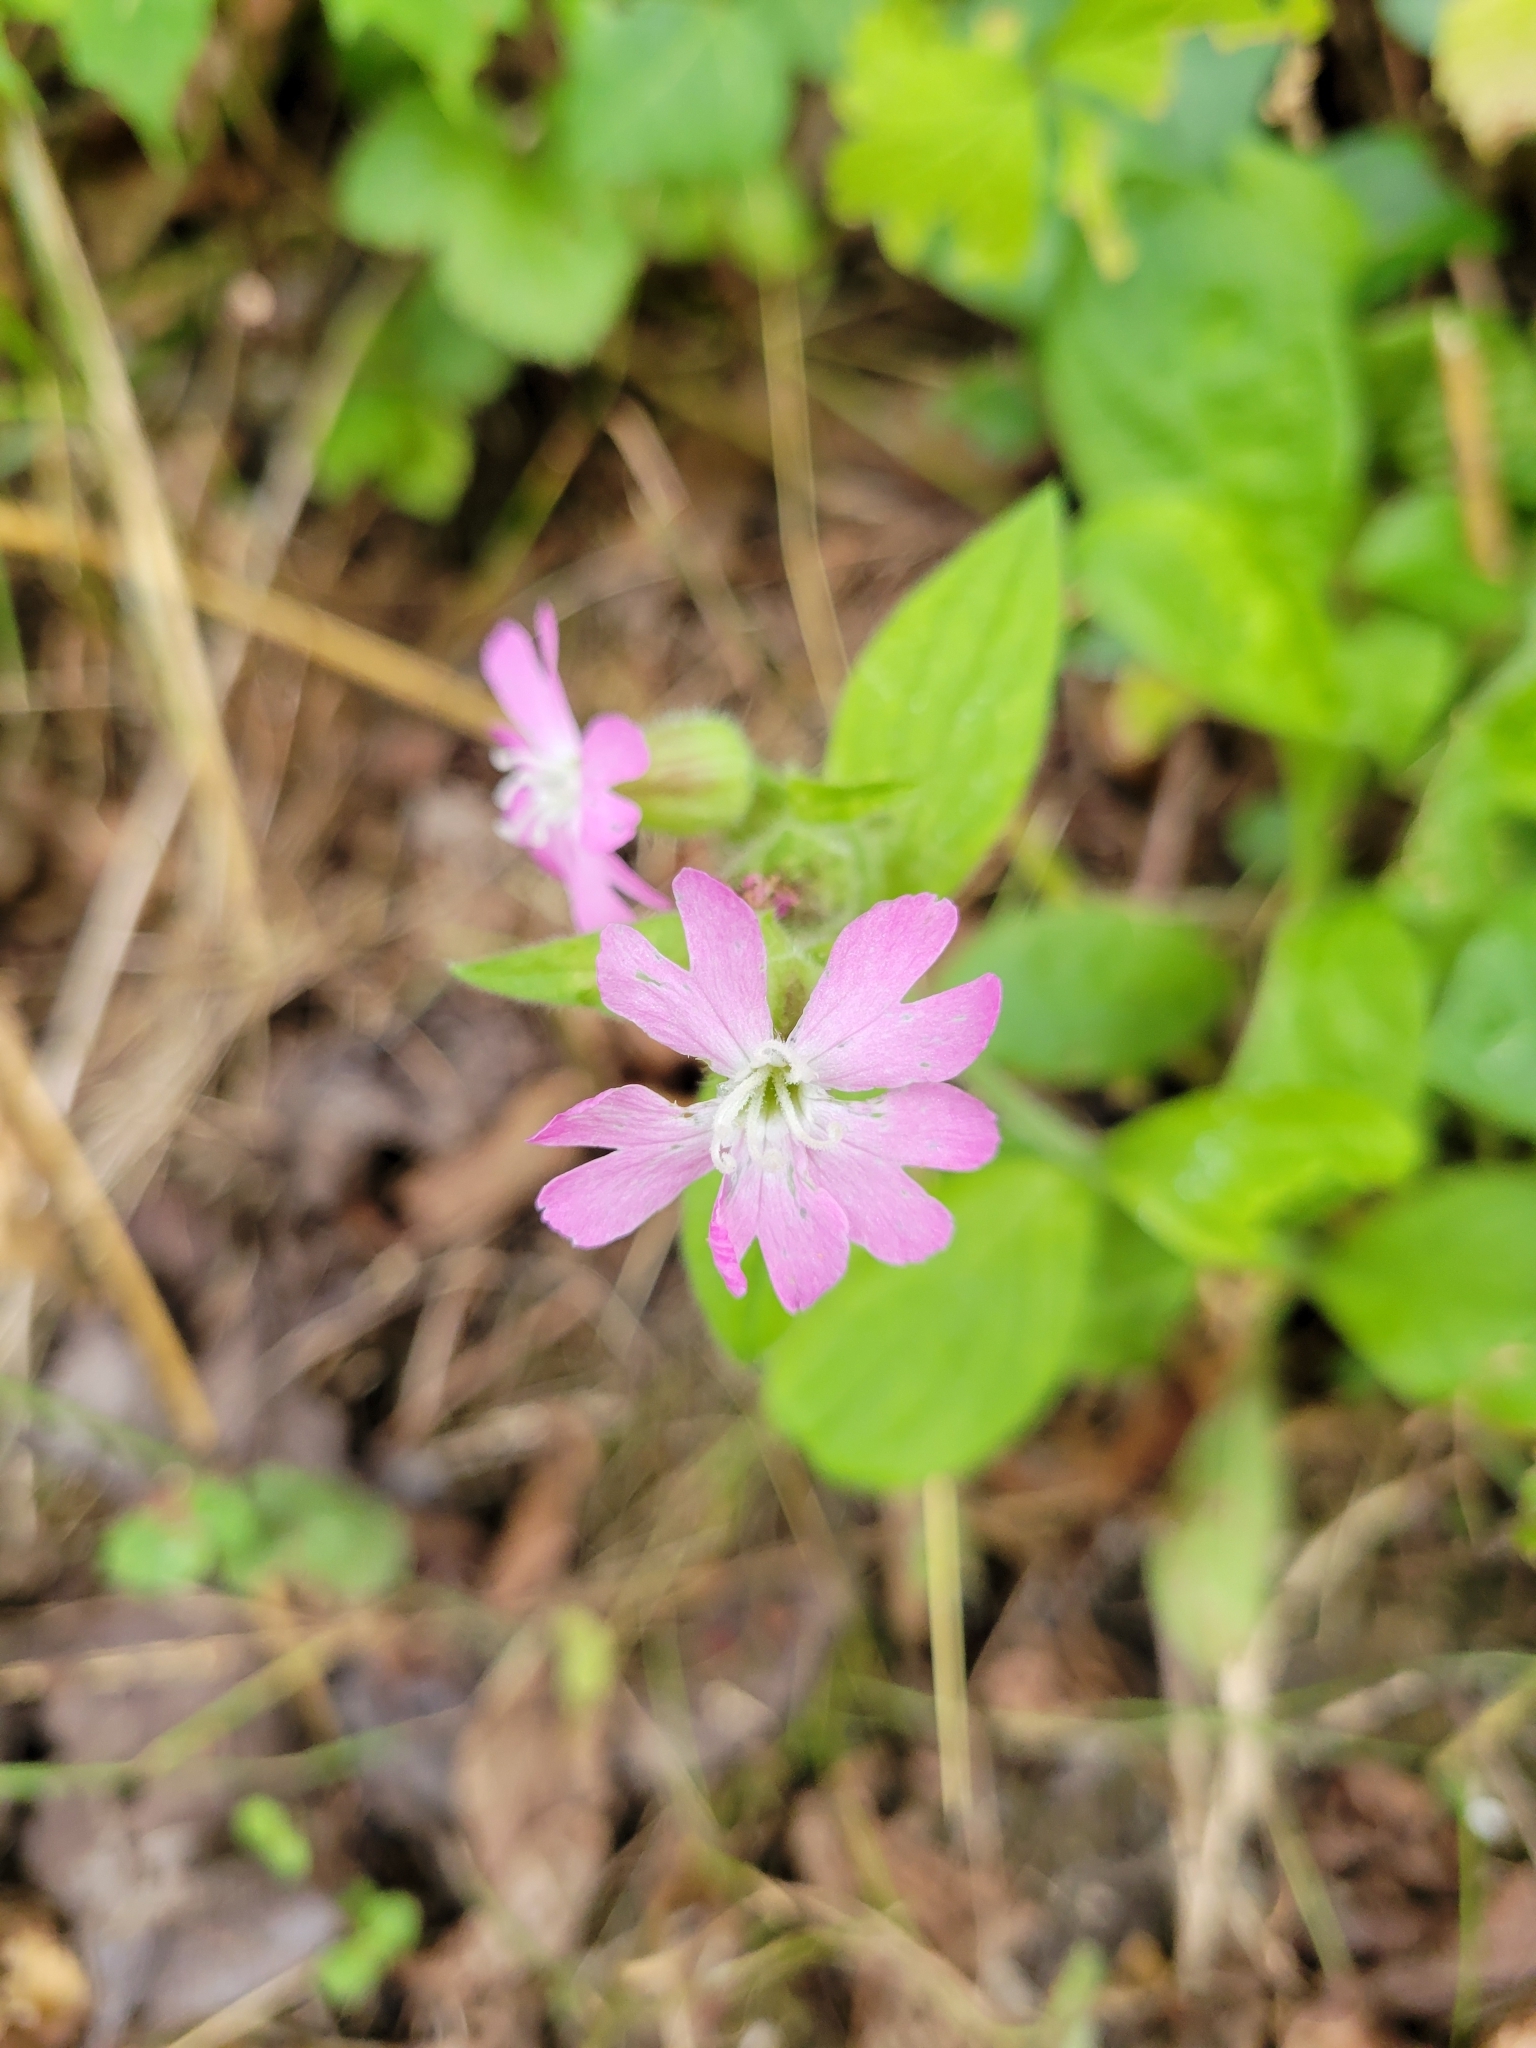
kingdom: Plantae
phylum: Tracheophyta
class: Magnoliopsida
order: Caryophyllales
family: Caryophyllaceae
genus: Silene
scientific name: Silene dioica
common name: Red campion
